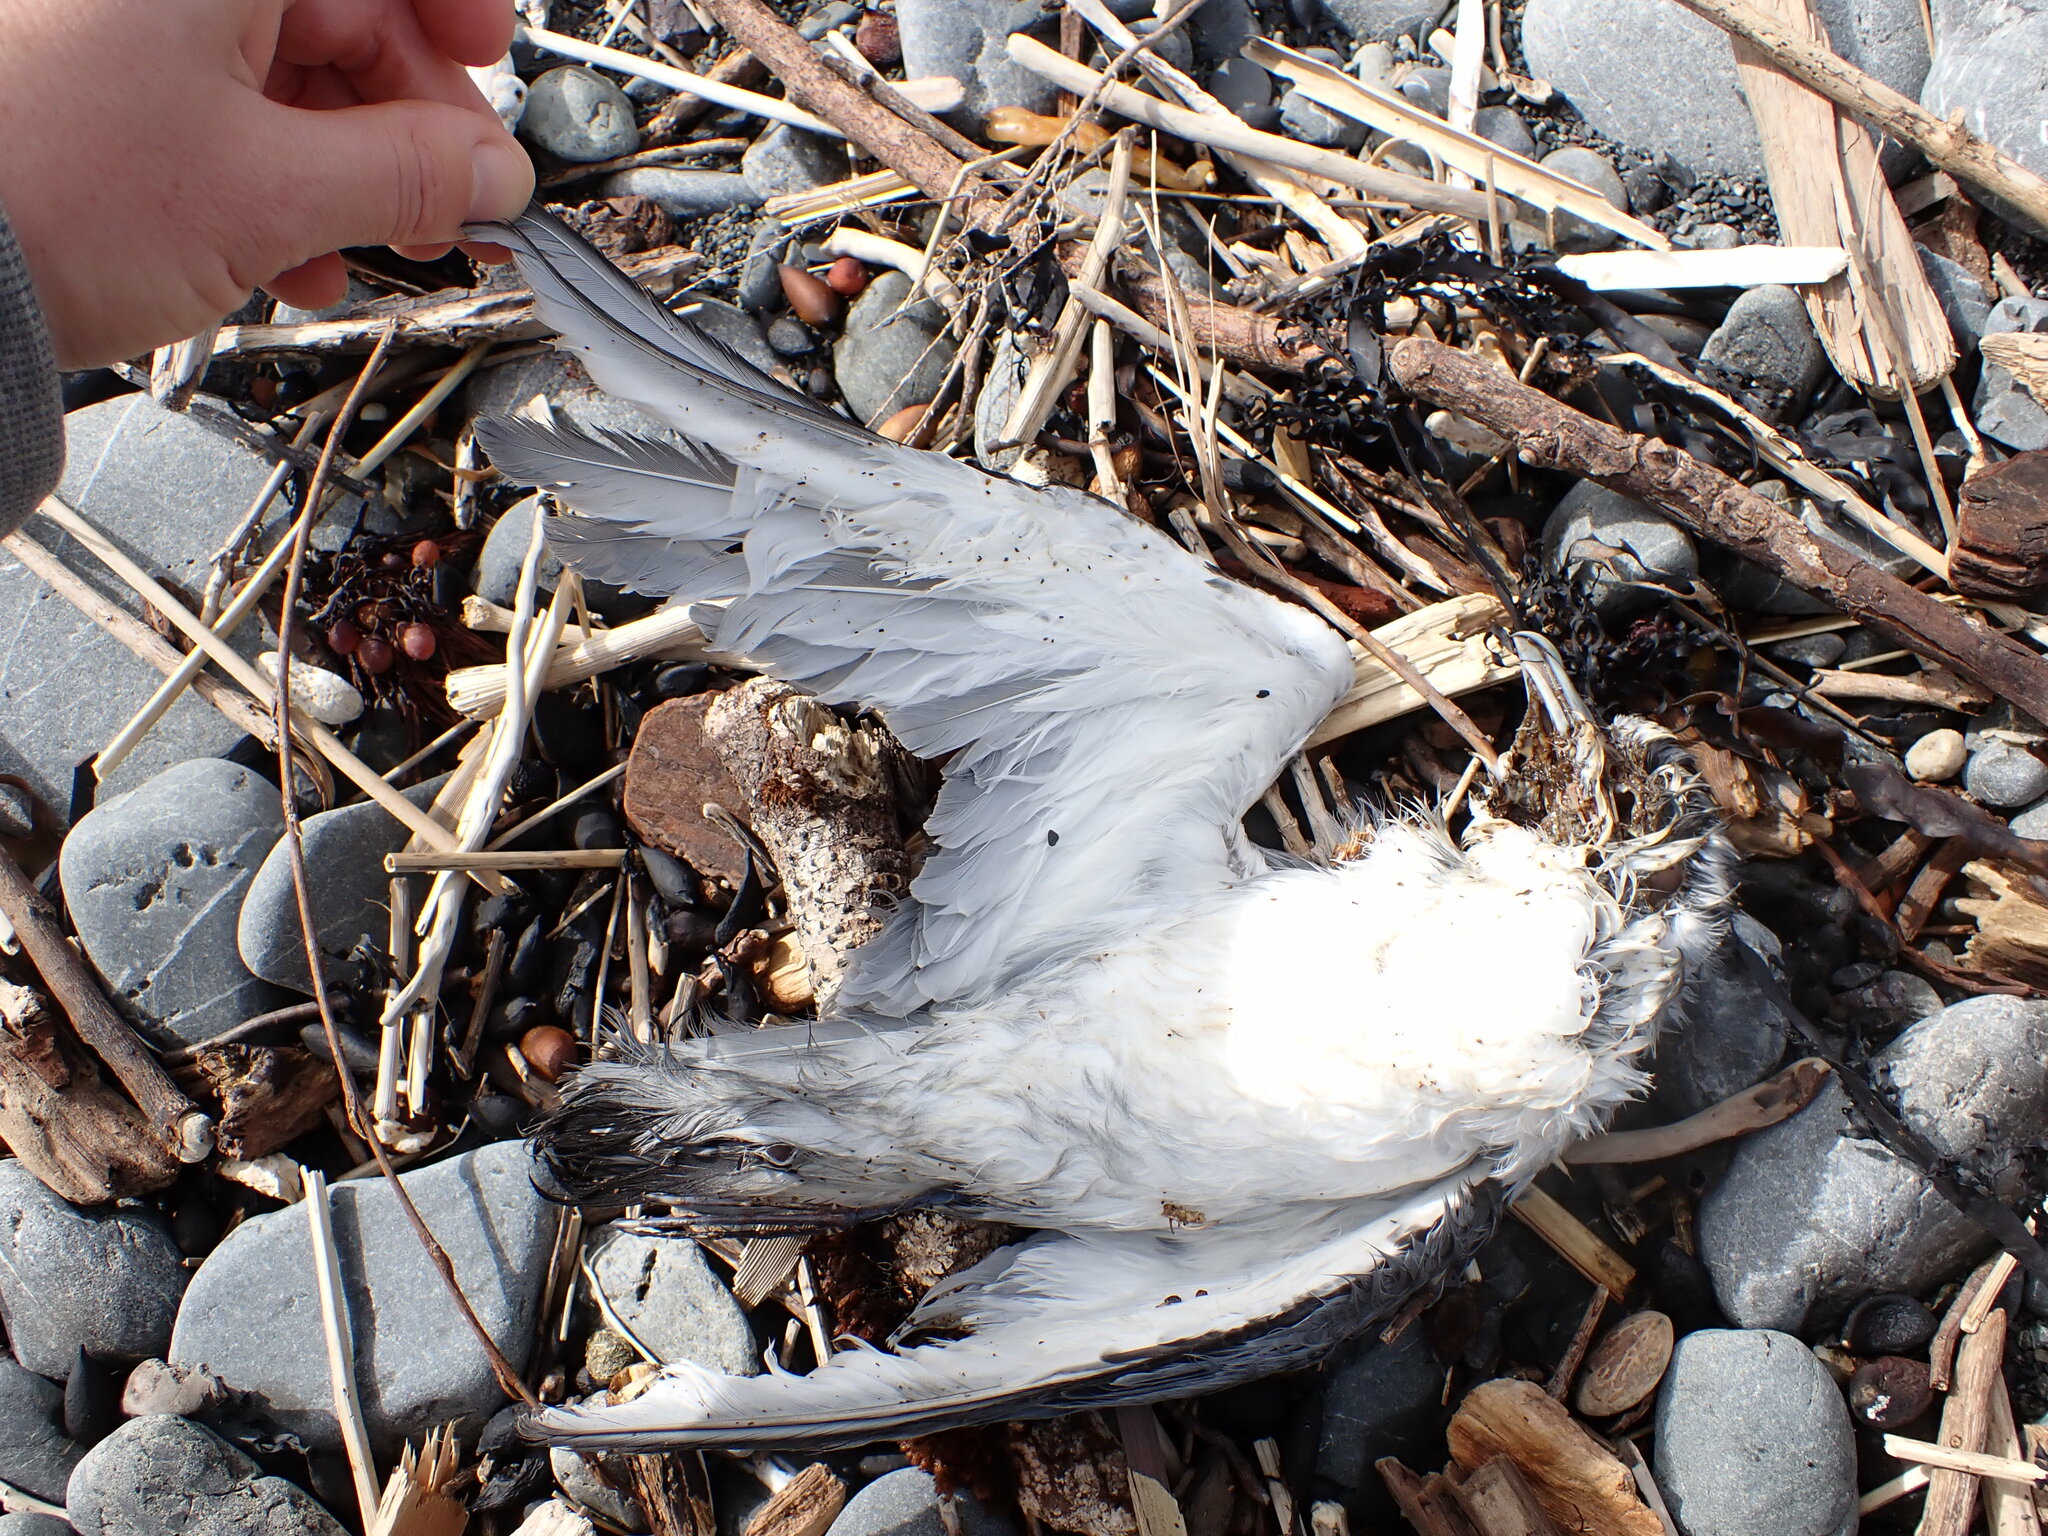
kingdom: Animalia
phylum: Chordata
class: Aves
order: Procellariiformes
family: Procellariidae
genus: Pachyptila
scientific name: Pachyptila turtur
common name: Fairy prion
